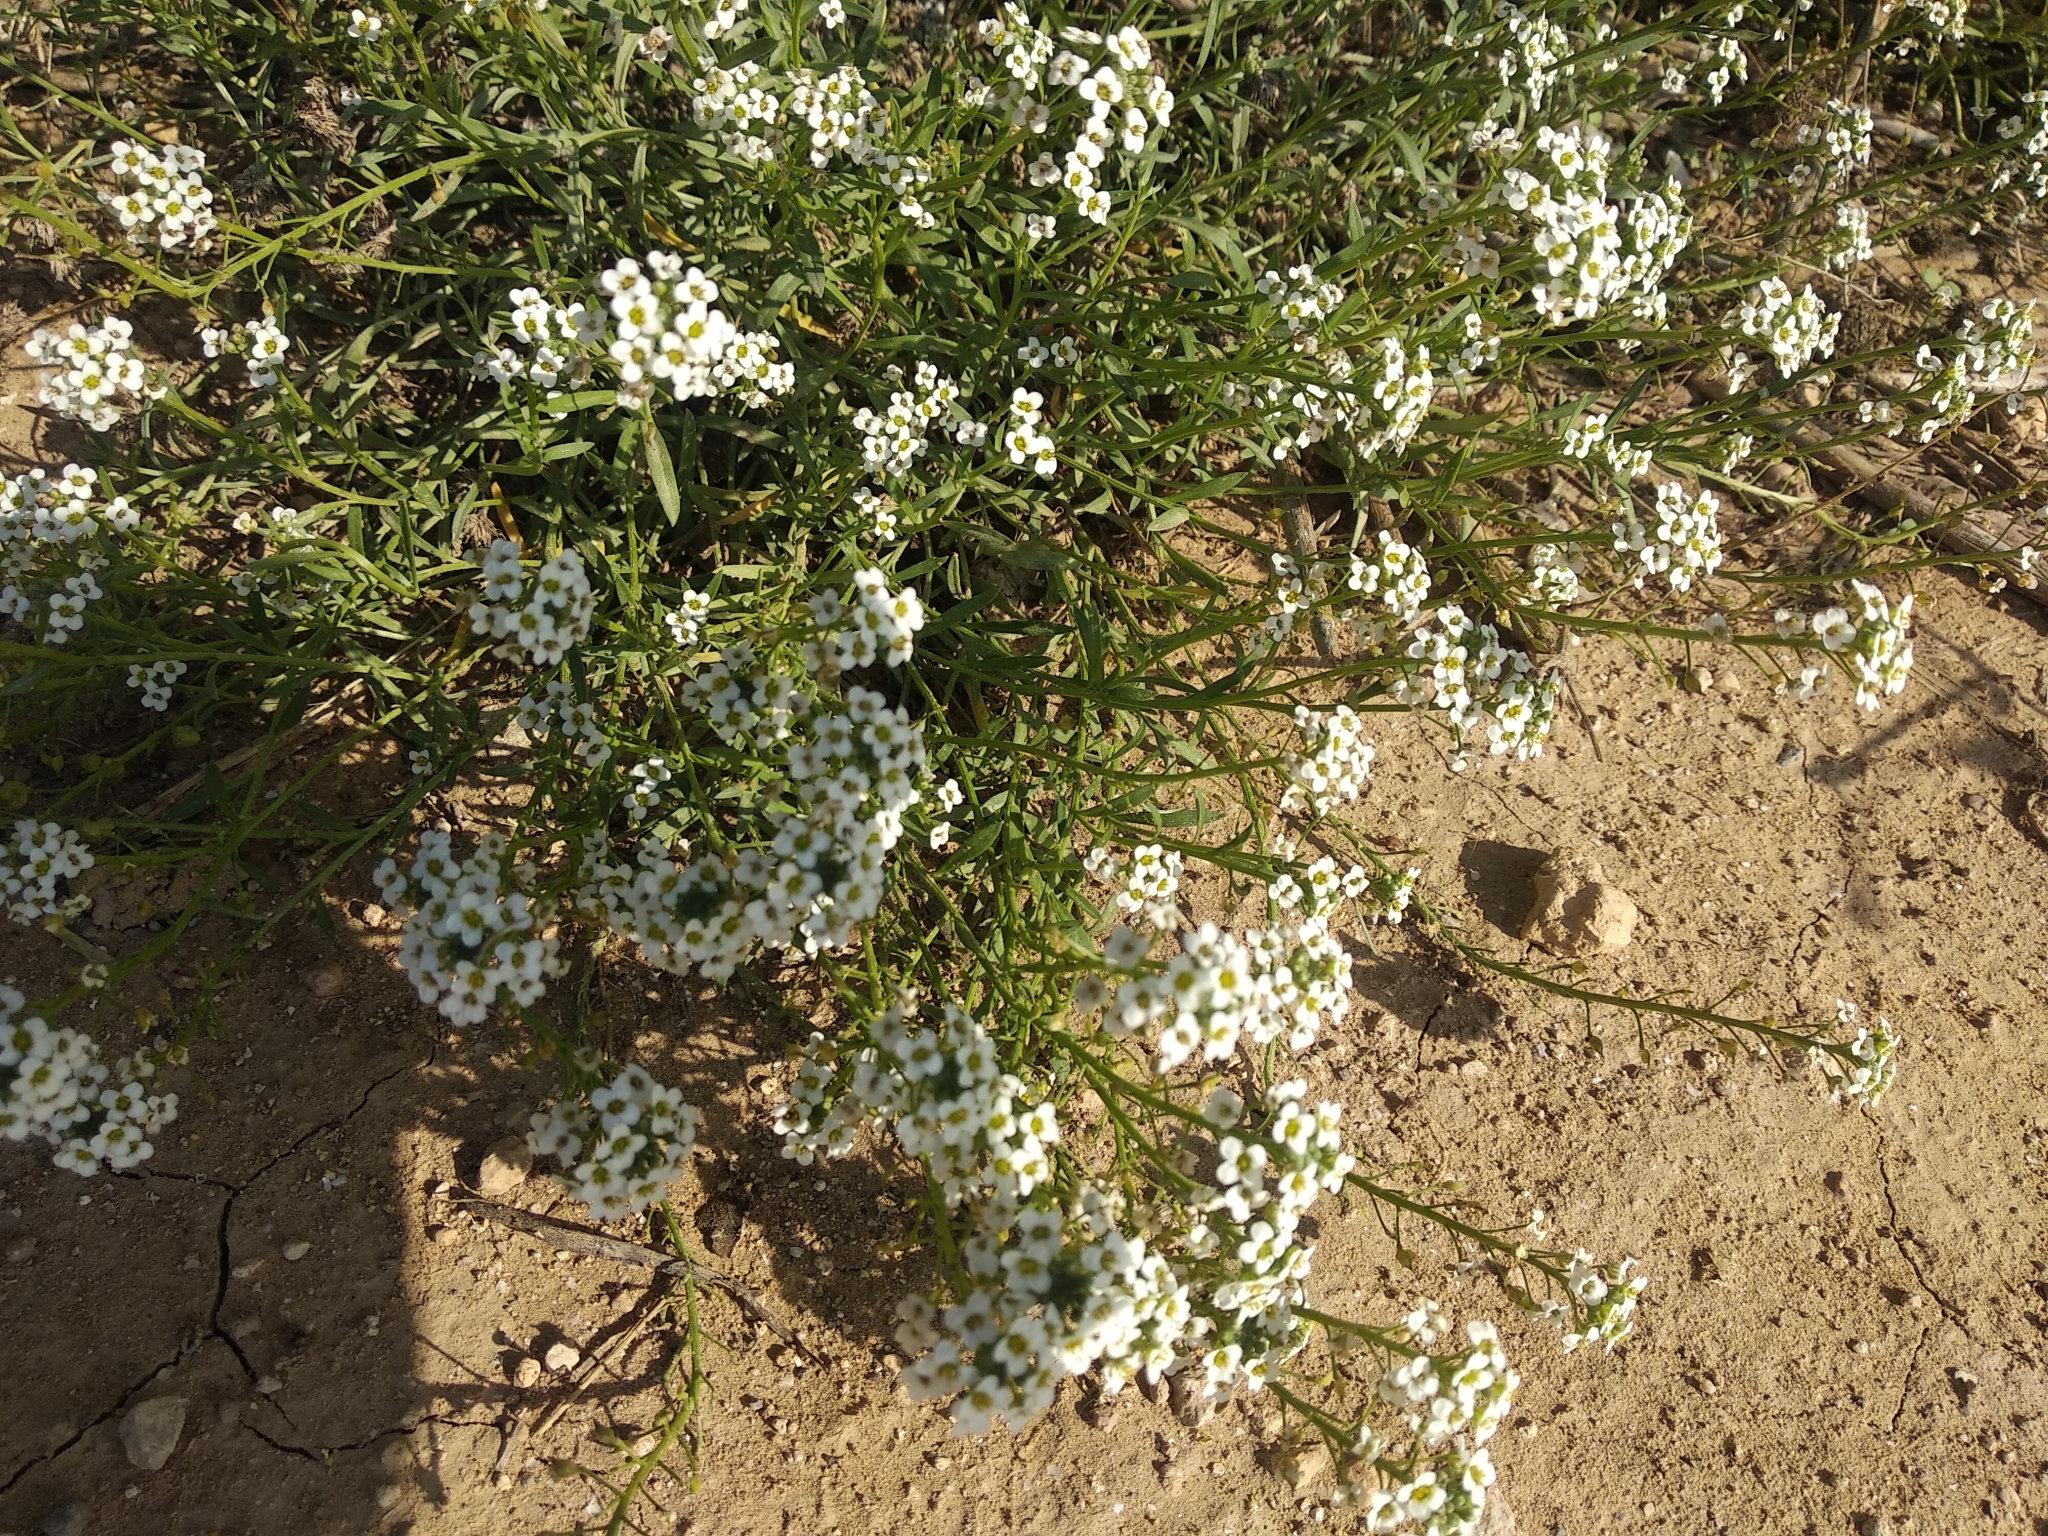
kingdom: Plantae
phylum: Tracheophyta
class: Magnoliopsida
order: Brassicales
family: Brassicaceae
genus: Lobularia
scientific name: Lobularia maritima
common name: Sweet alison
